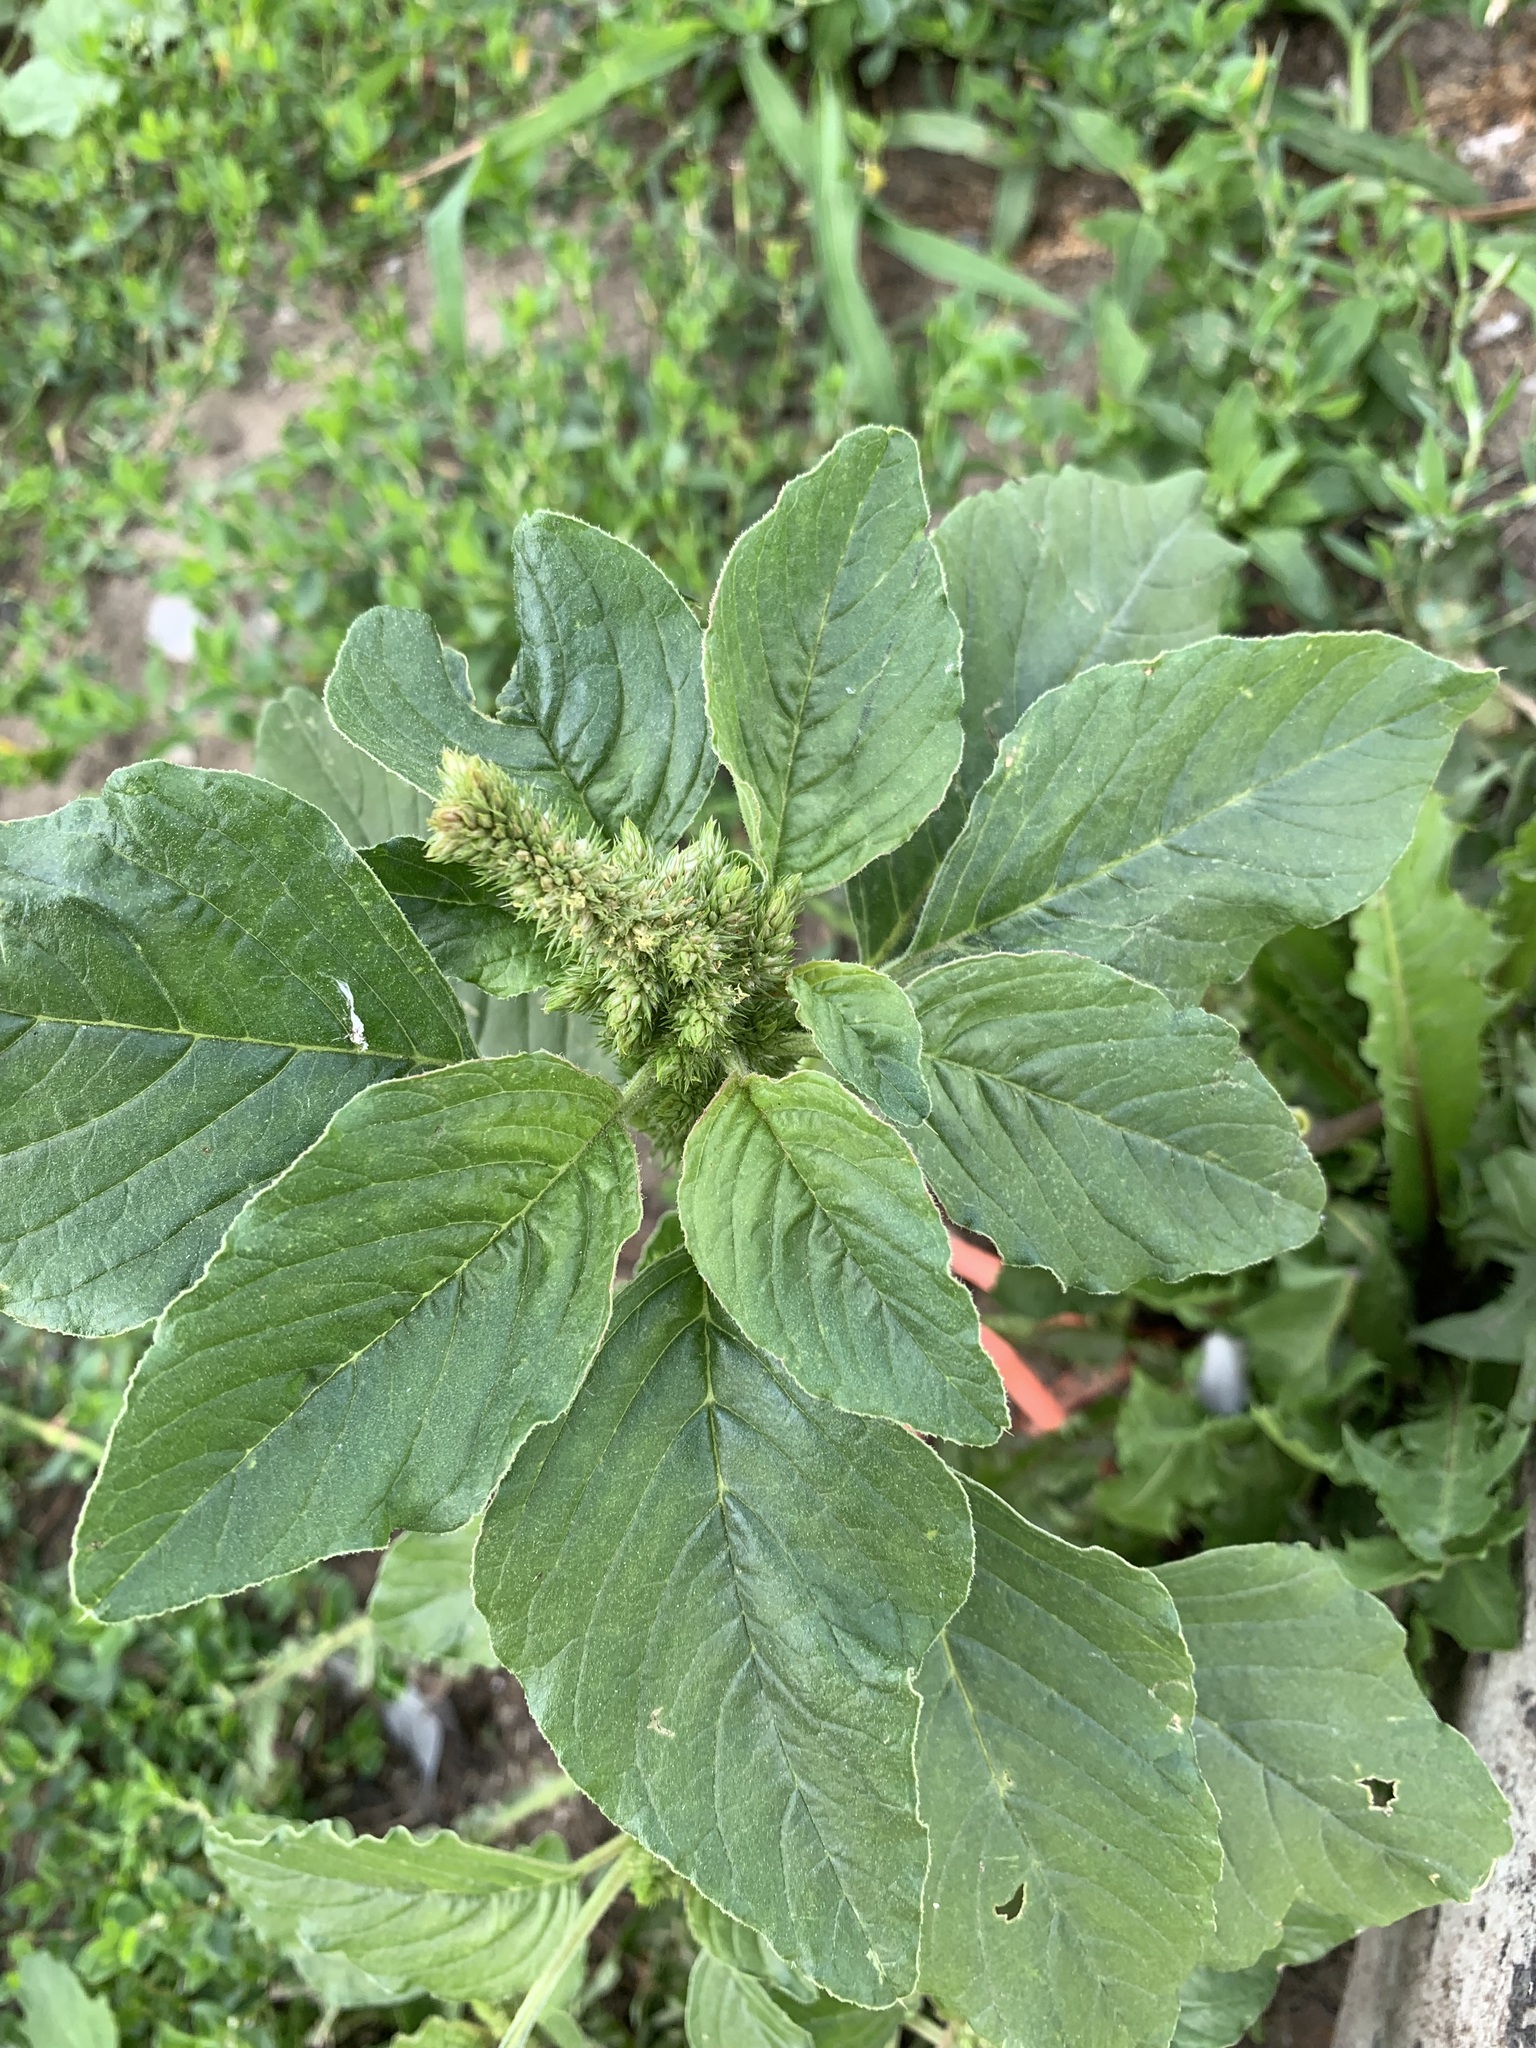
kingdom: Plantae
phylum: Tracheophyta
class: Magnoliopsida
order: Caryophyllales
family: Amaranthaceae
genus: Amaranthus
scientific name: Amaranthus retroflexus
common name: Redroot amaranth
